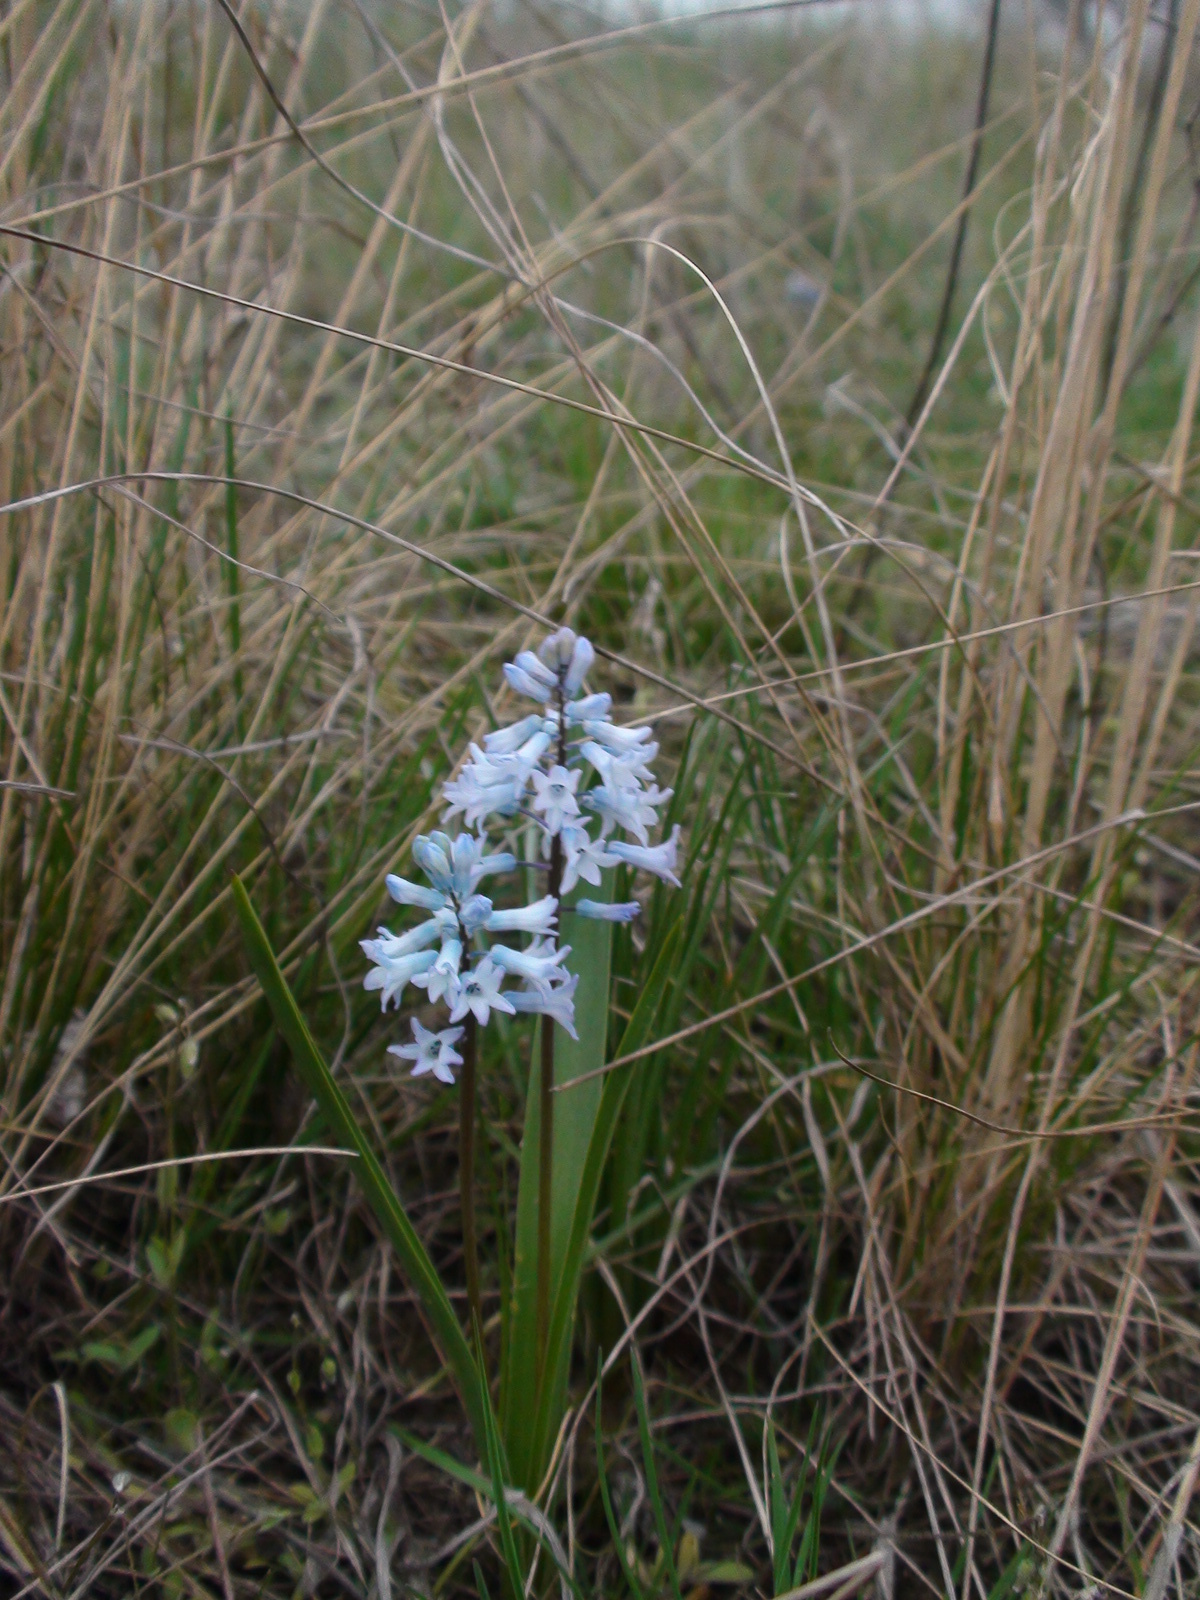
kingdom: Plantae
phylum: Tracheophyta
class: Liliopsida
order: Asparagales
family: Asparagaceae
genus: Hyacinthella
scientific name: Hyacinthella pallasiana
